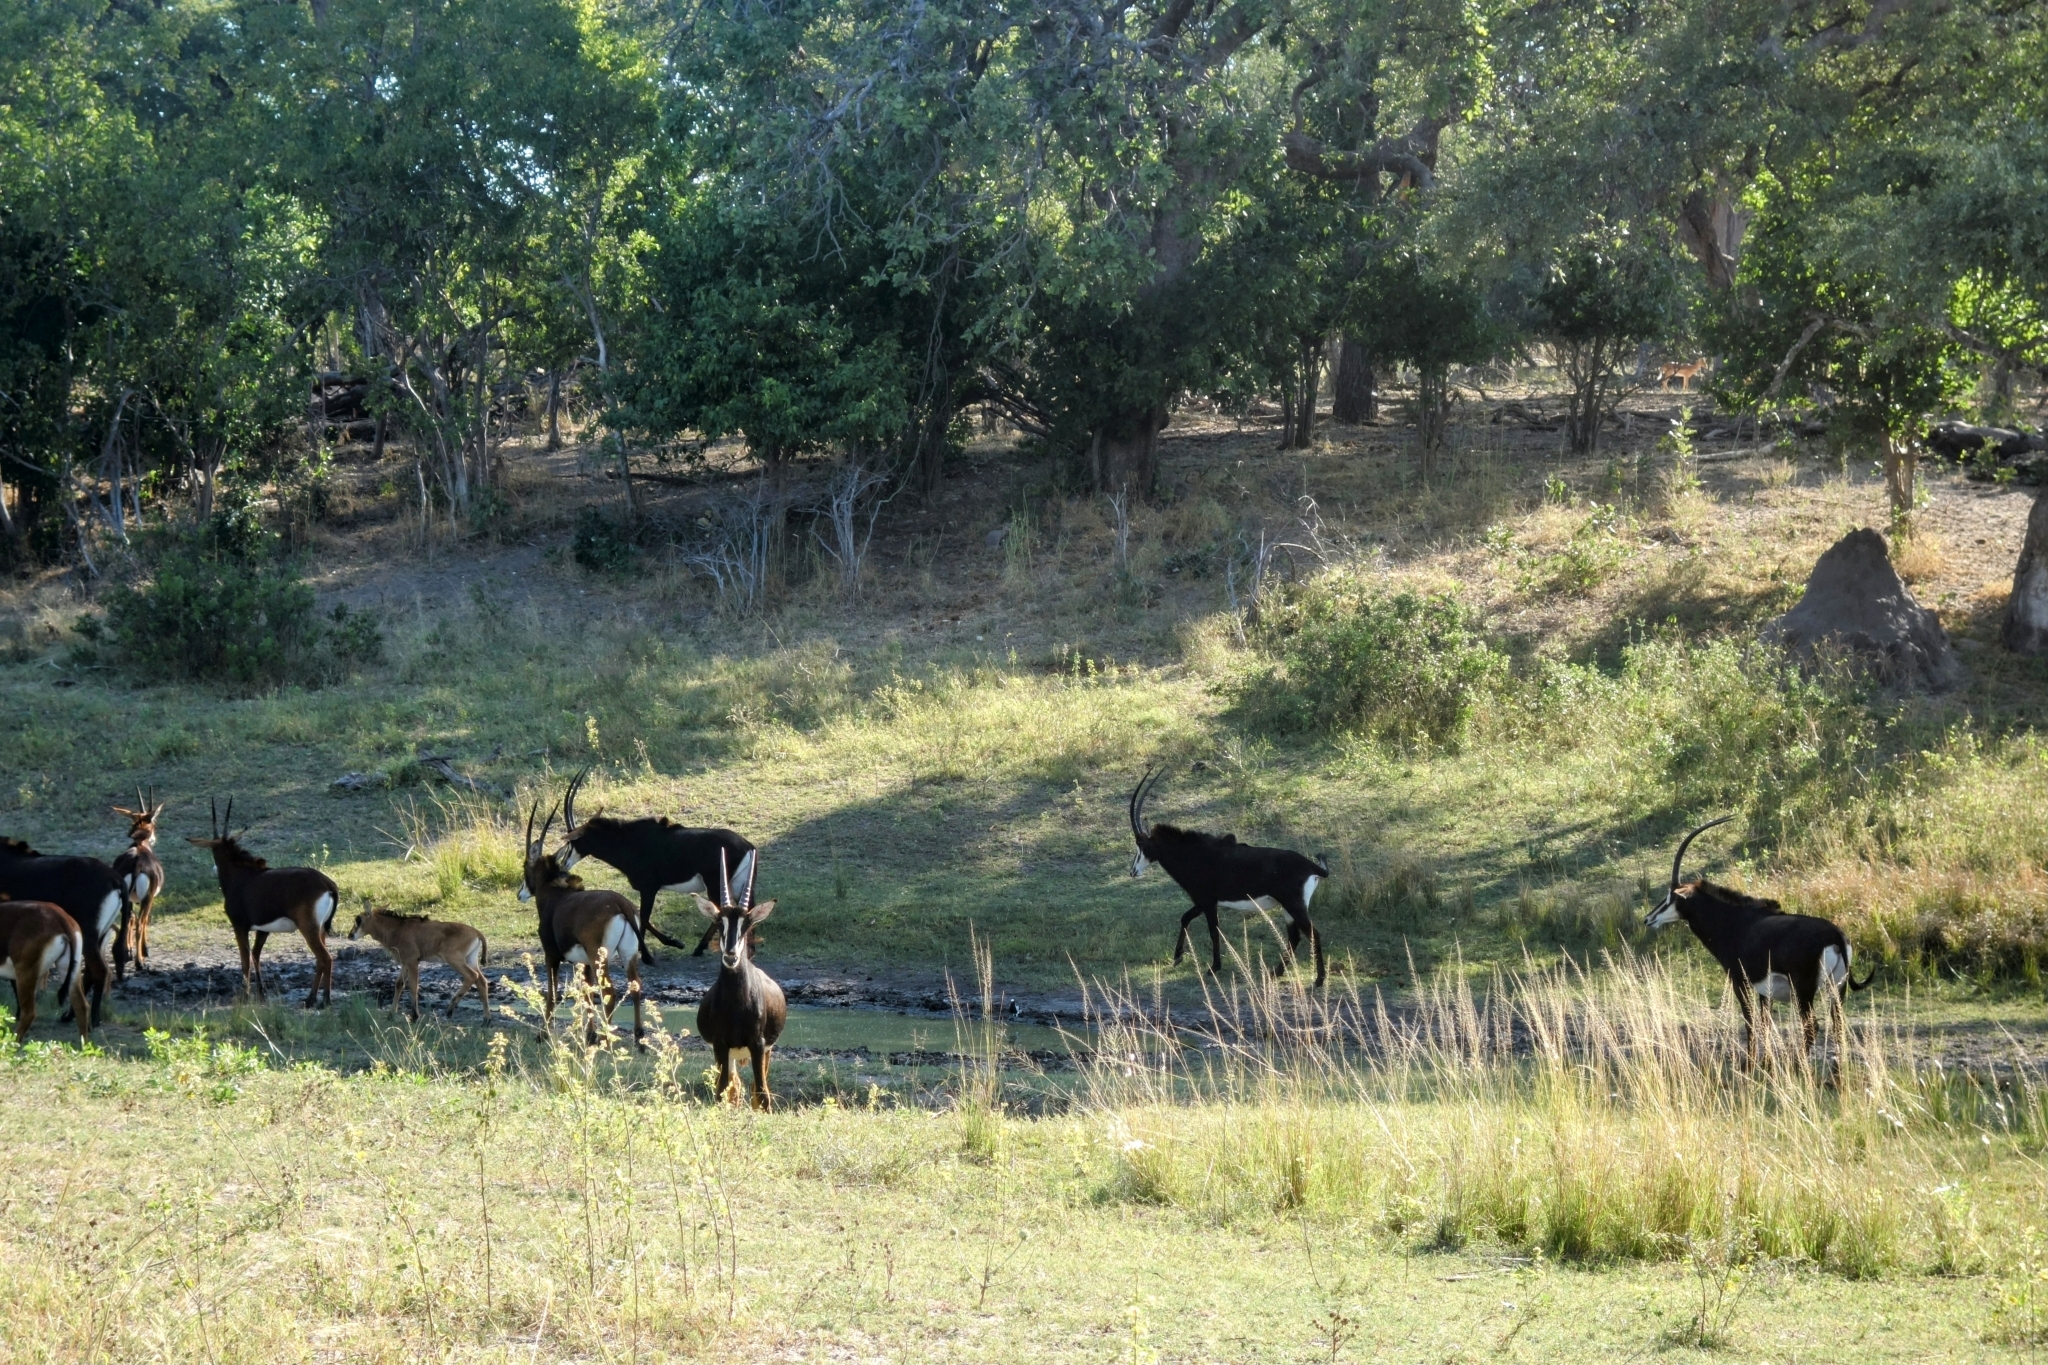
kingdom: Animalia
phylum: Chordata
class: Mammalia
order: Artiodactyla
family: Bovidae
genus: Hippotragus
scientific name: Hippotragus niger
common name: Sable antelope
